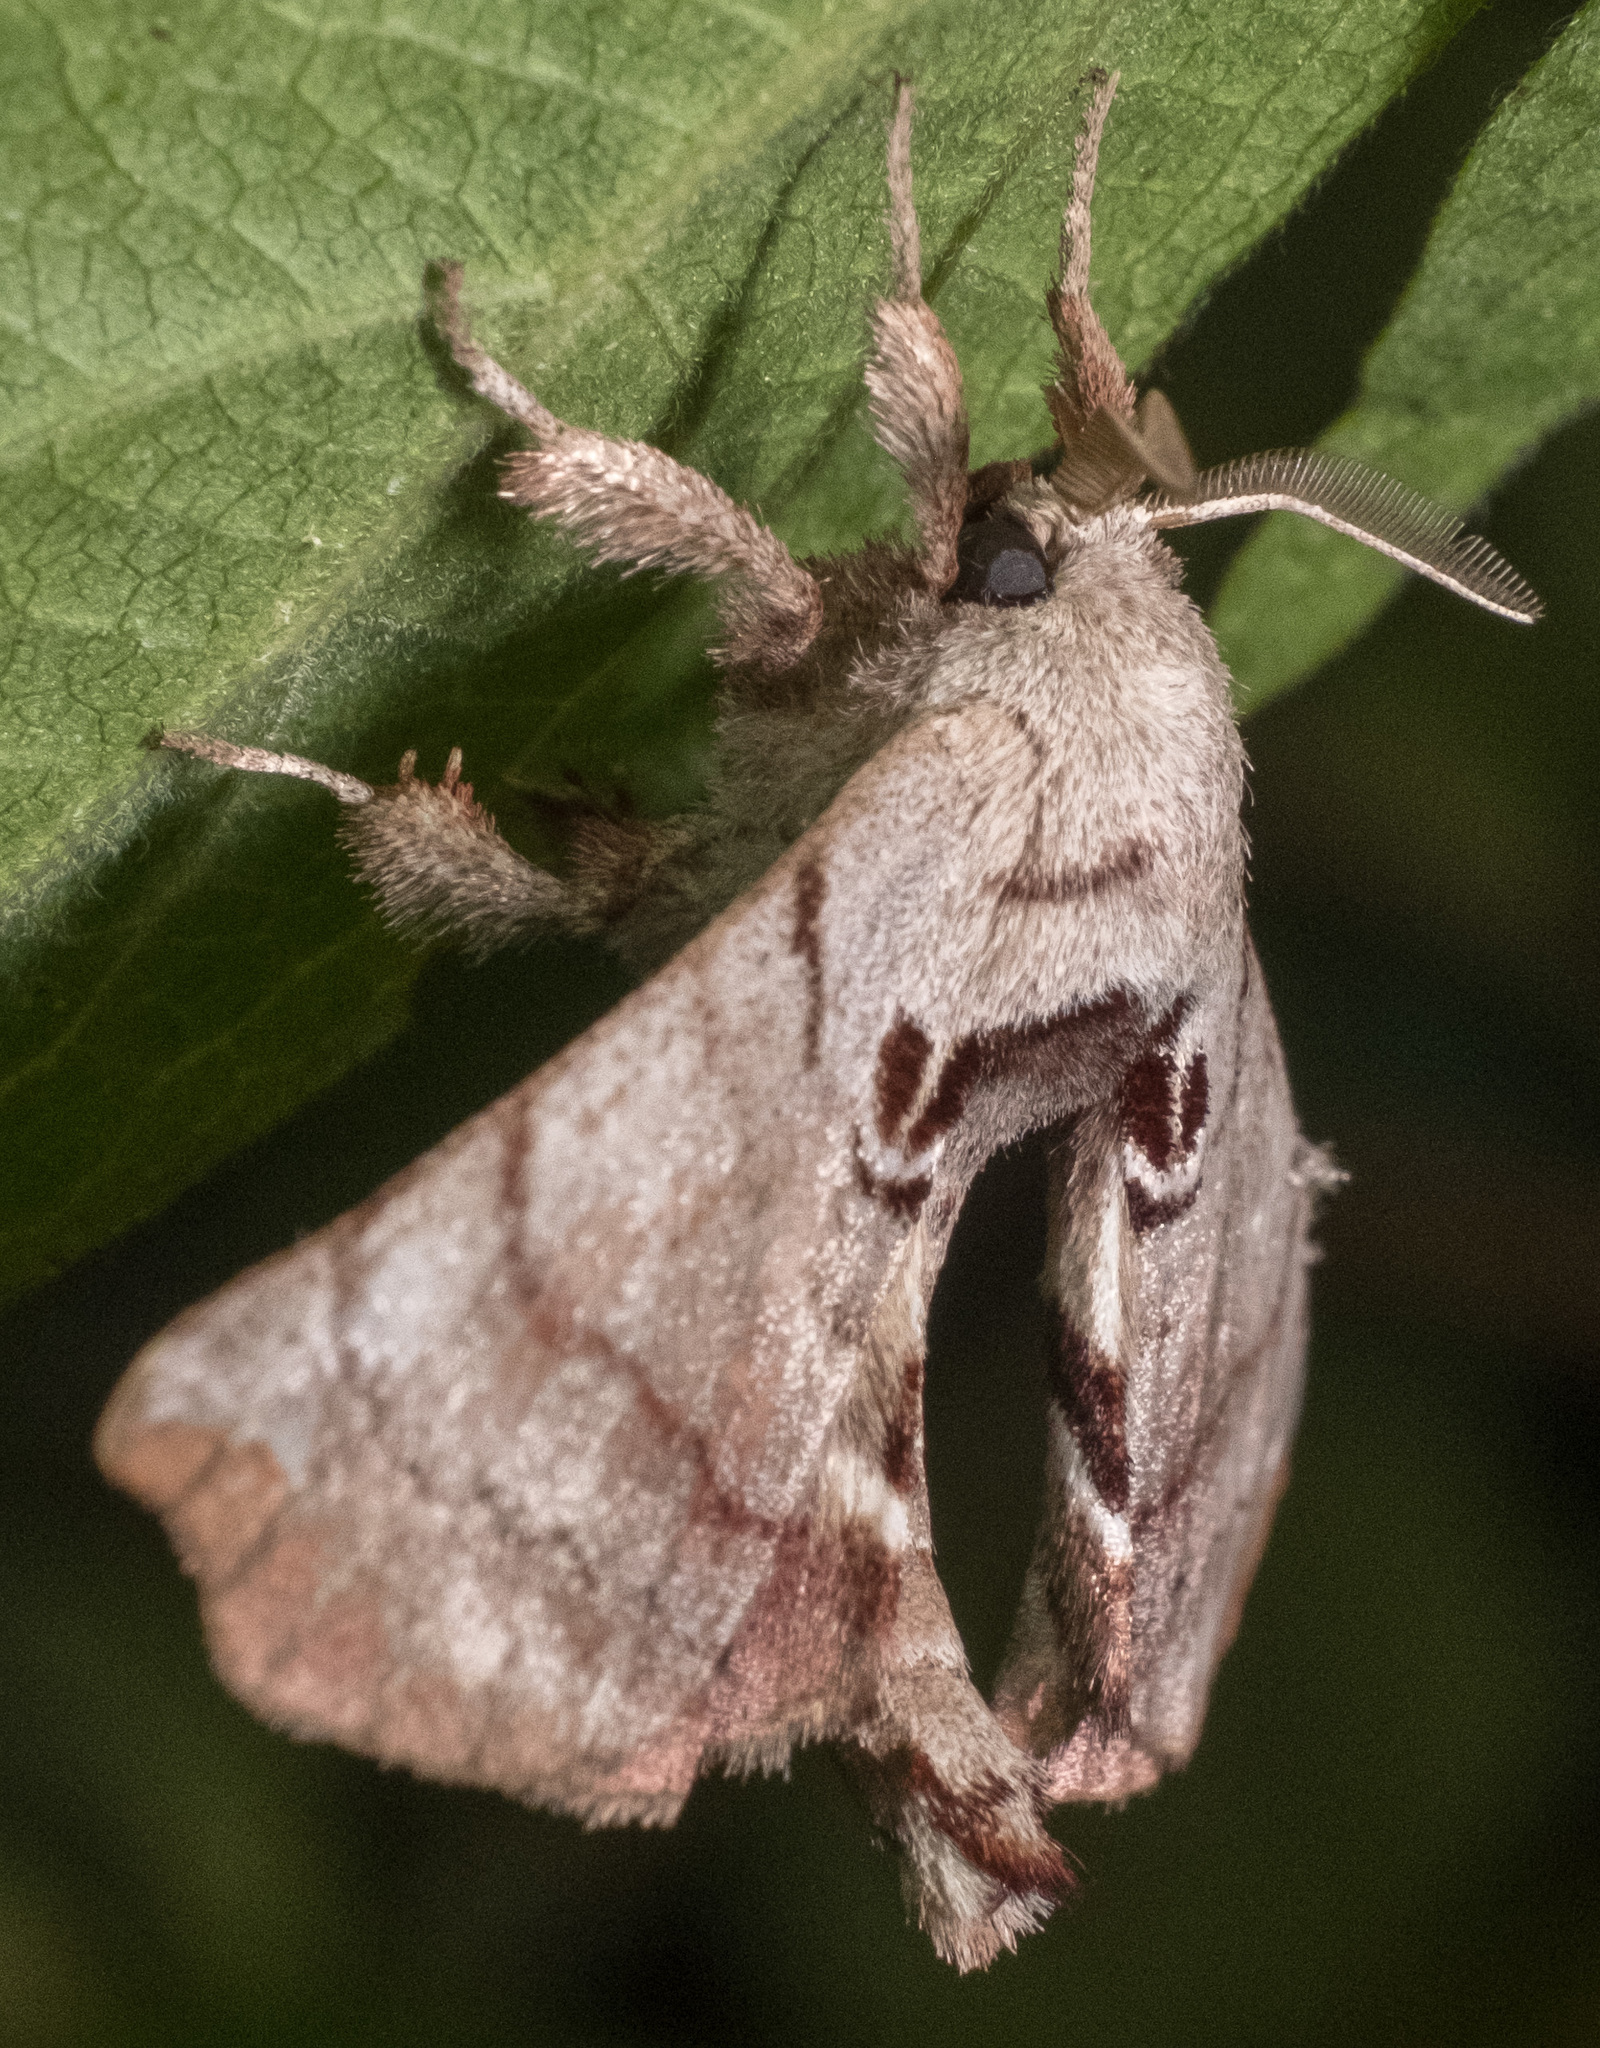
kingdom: Animalia
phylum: Arthropoda
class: Insecta
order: Lepidoptera
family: Apatelodidae
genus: Hygrochroa
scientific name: Hygrochroa Apatelodes torrefacta
